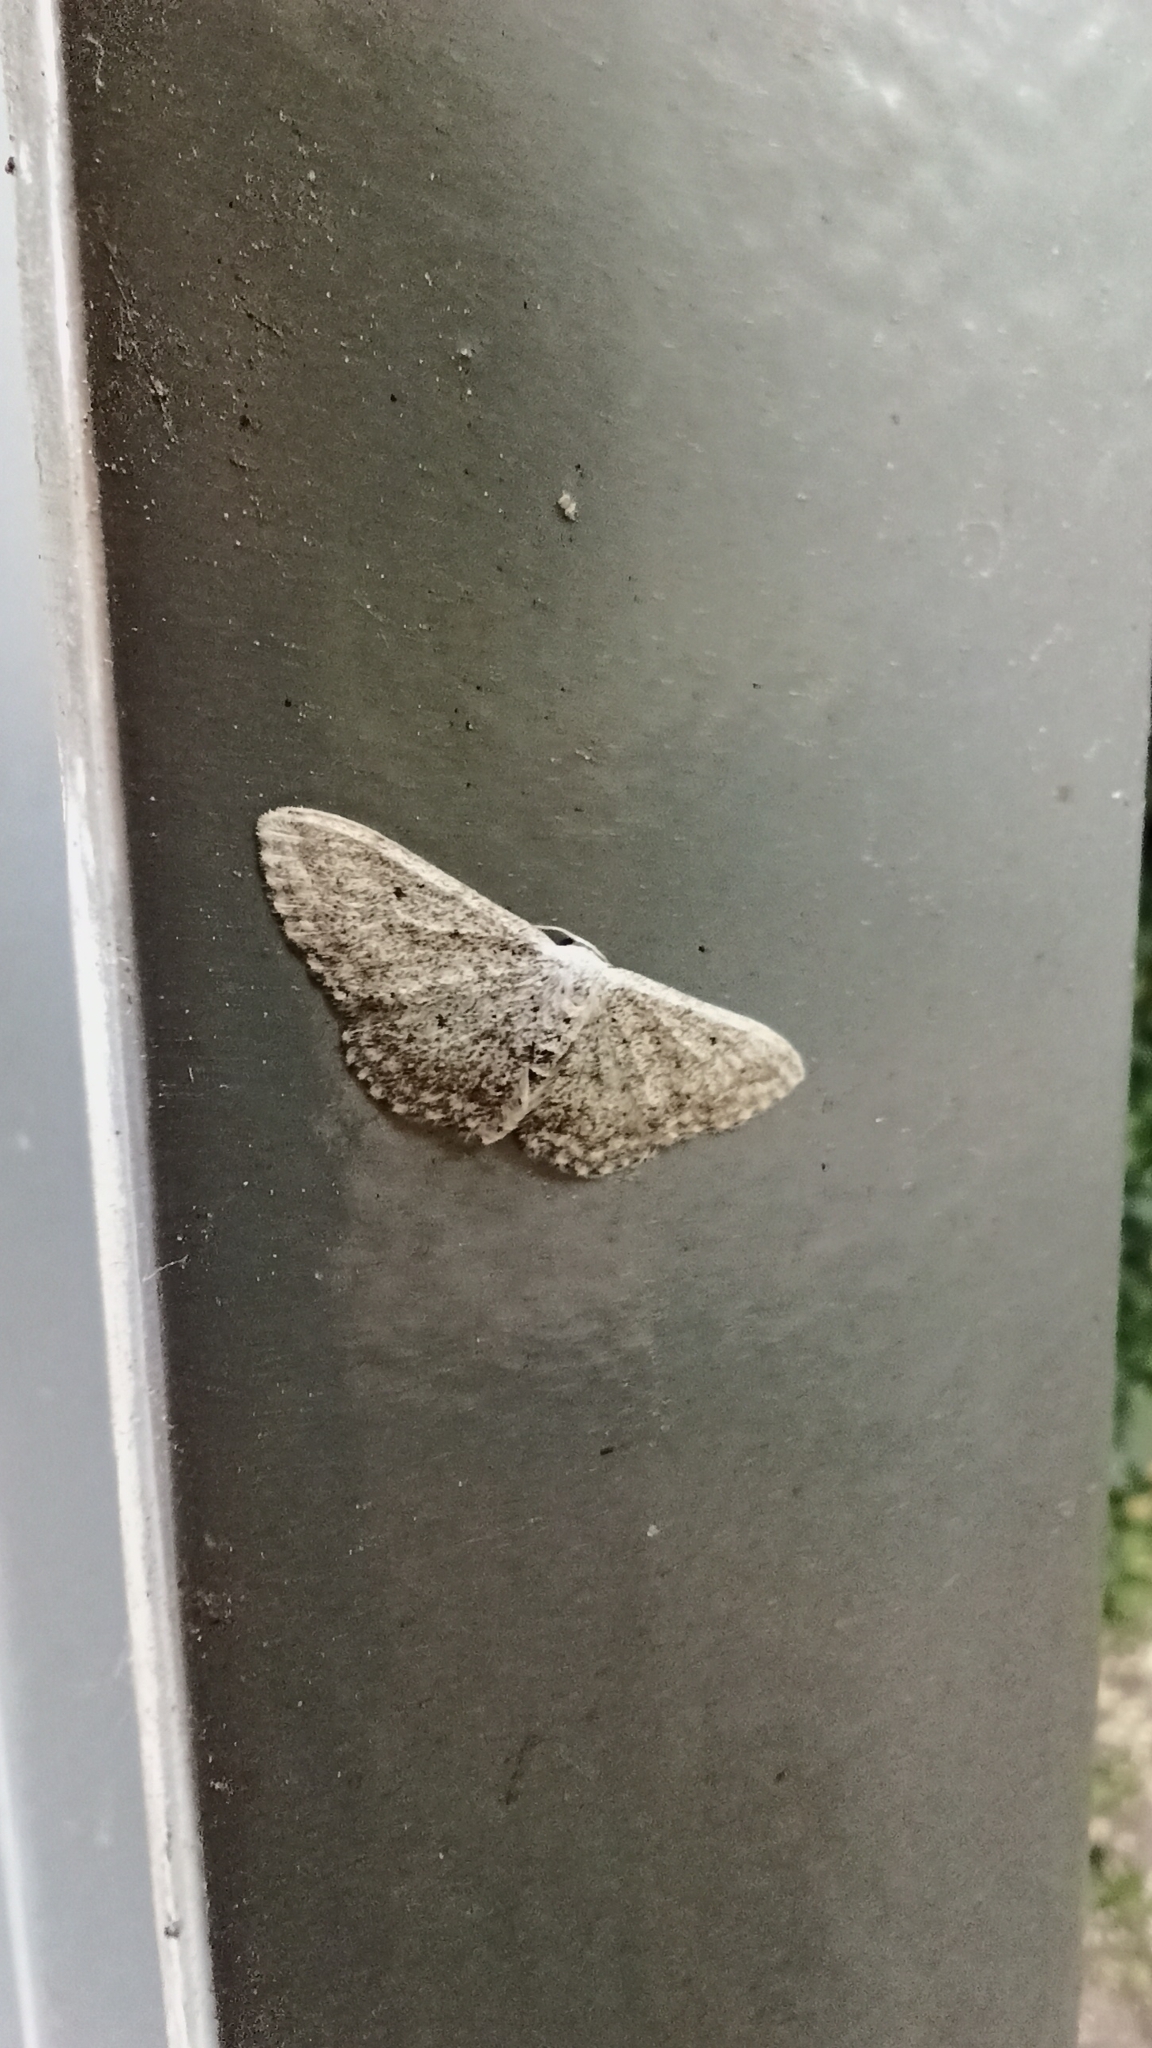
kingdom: Animalia
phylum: Arthropoda
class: Insecta
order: Lepidoptera
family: Geometridae
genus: Idaea
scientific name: Idaea seriata
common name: Small dusty wave
